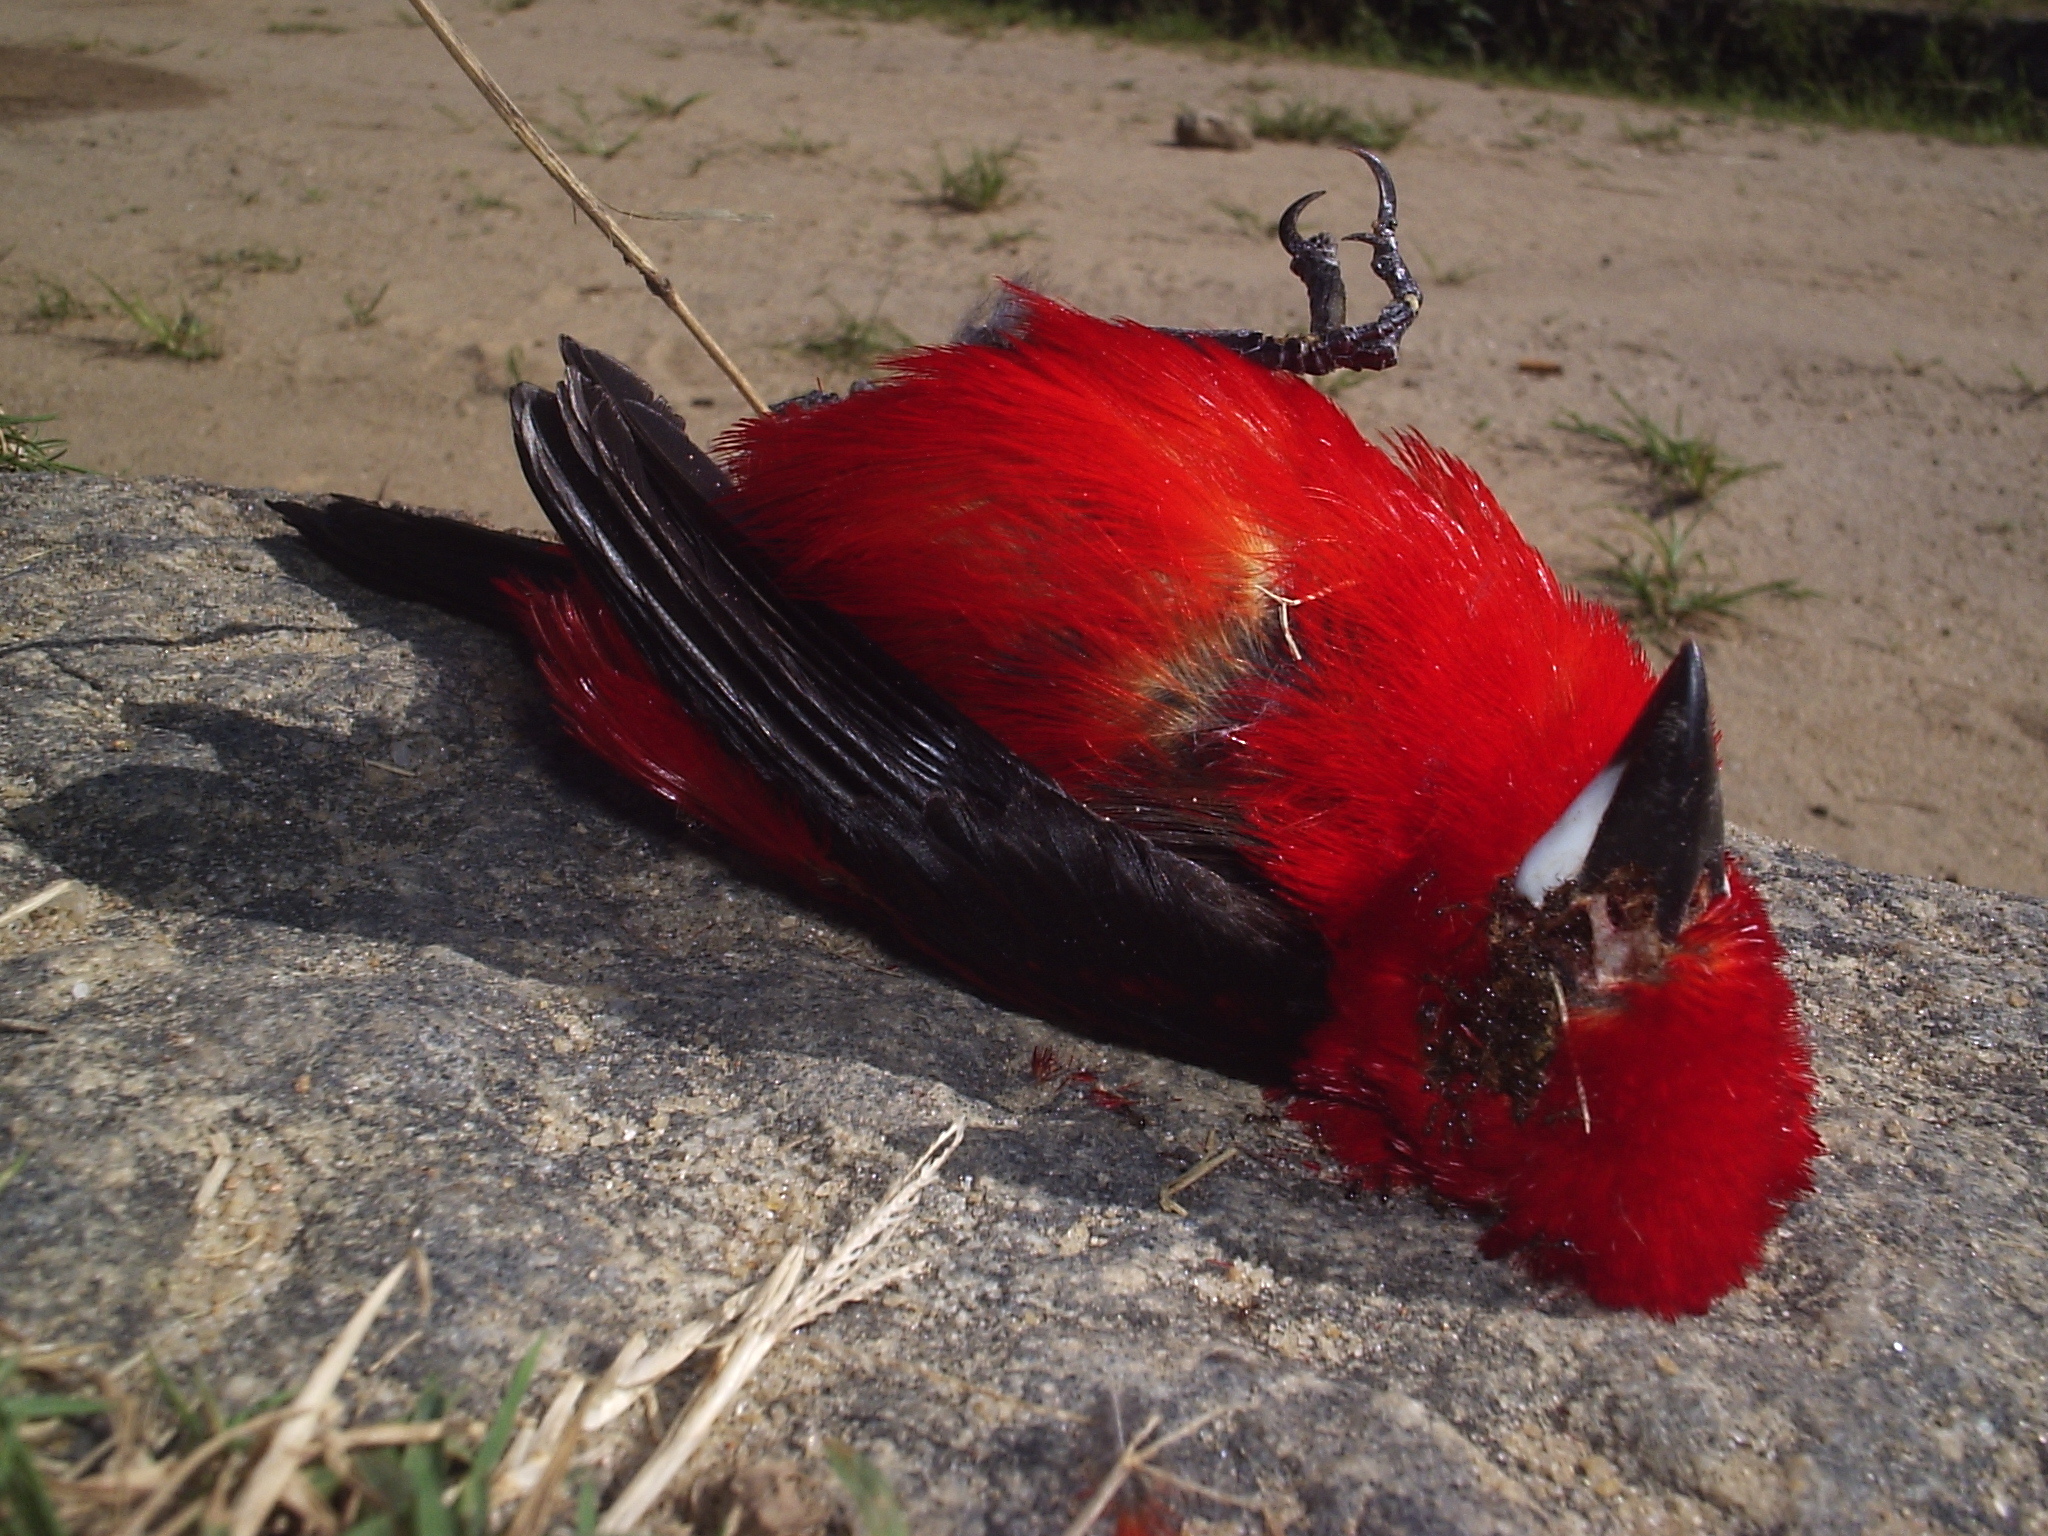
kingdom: Animalia
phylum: Chordata
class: Aves
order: Passeriformes
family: Thraupidae
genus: Ramphocelus
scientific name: Ramphocelus bresilia
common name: Brazilian tanager
